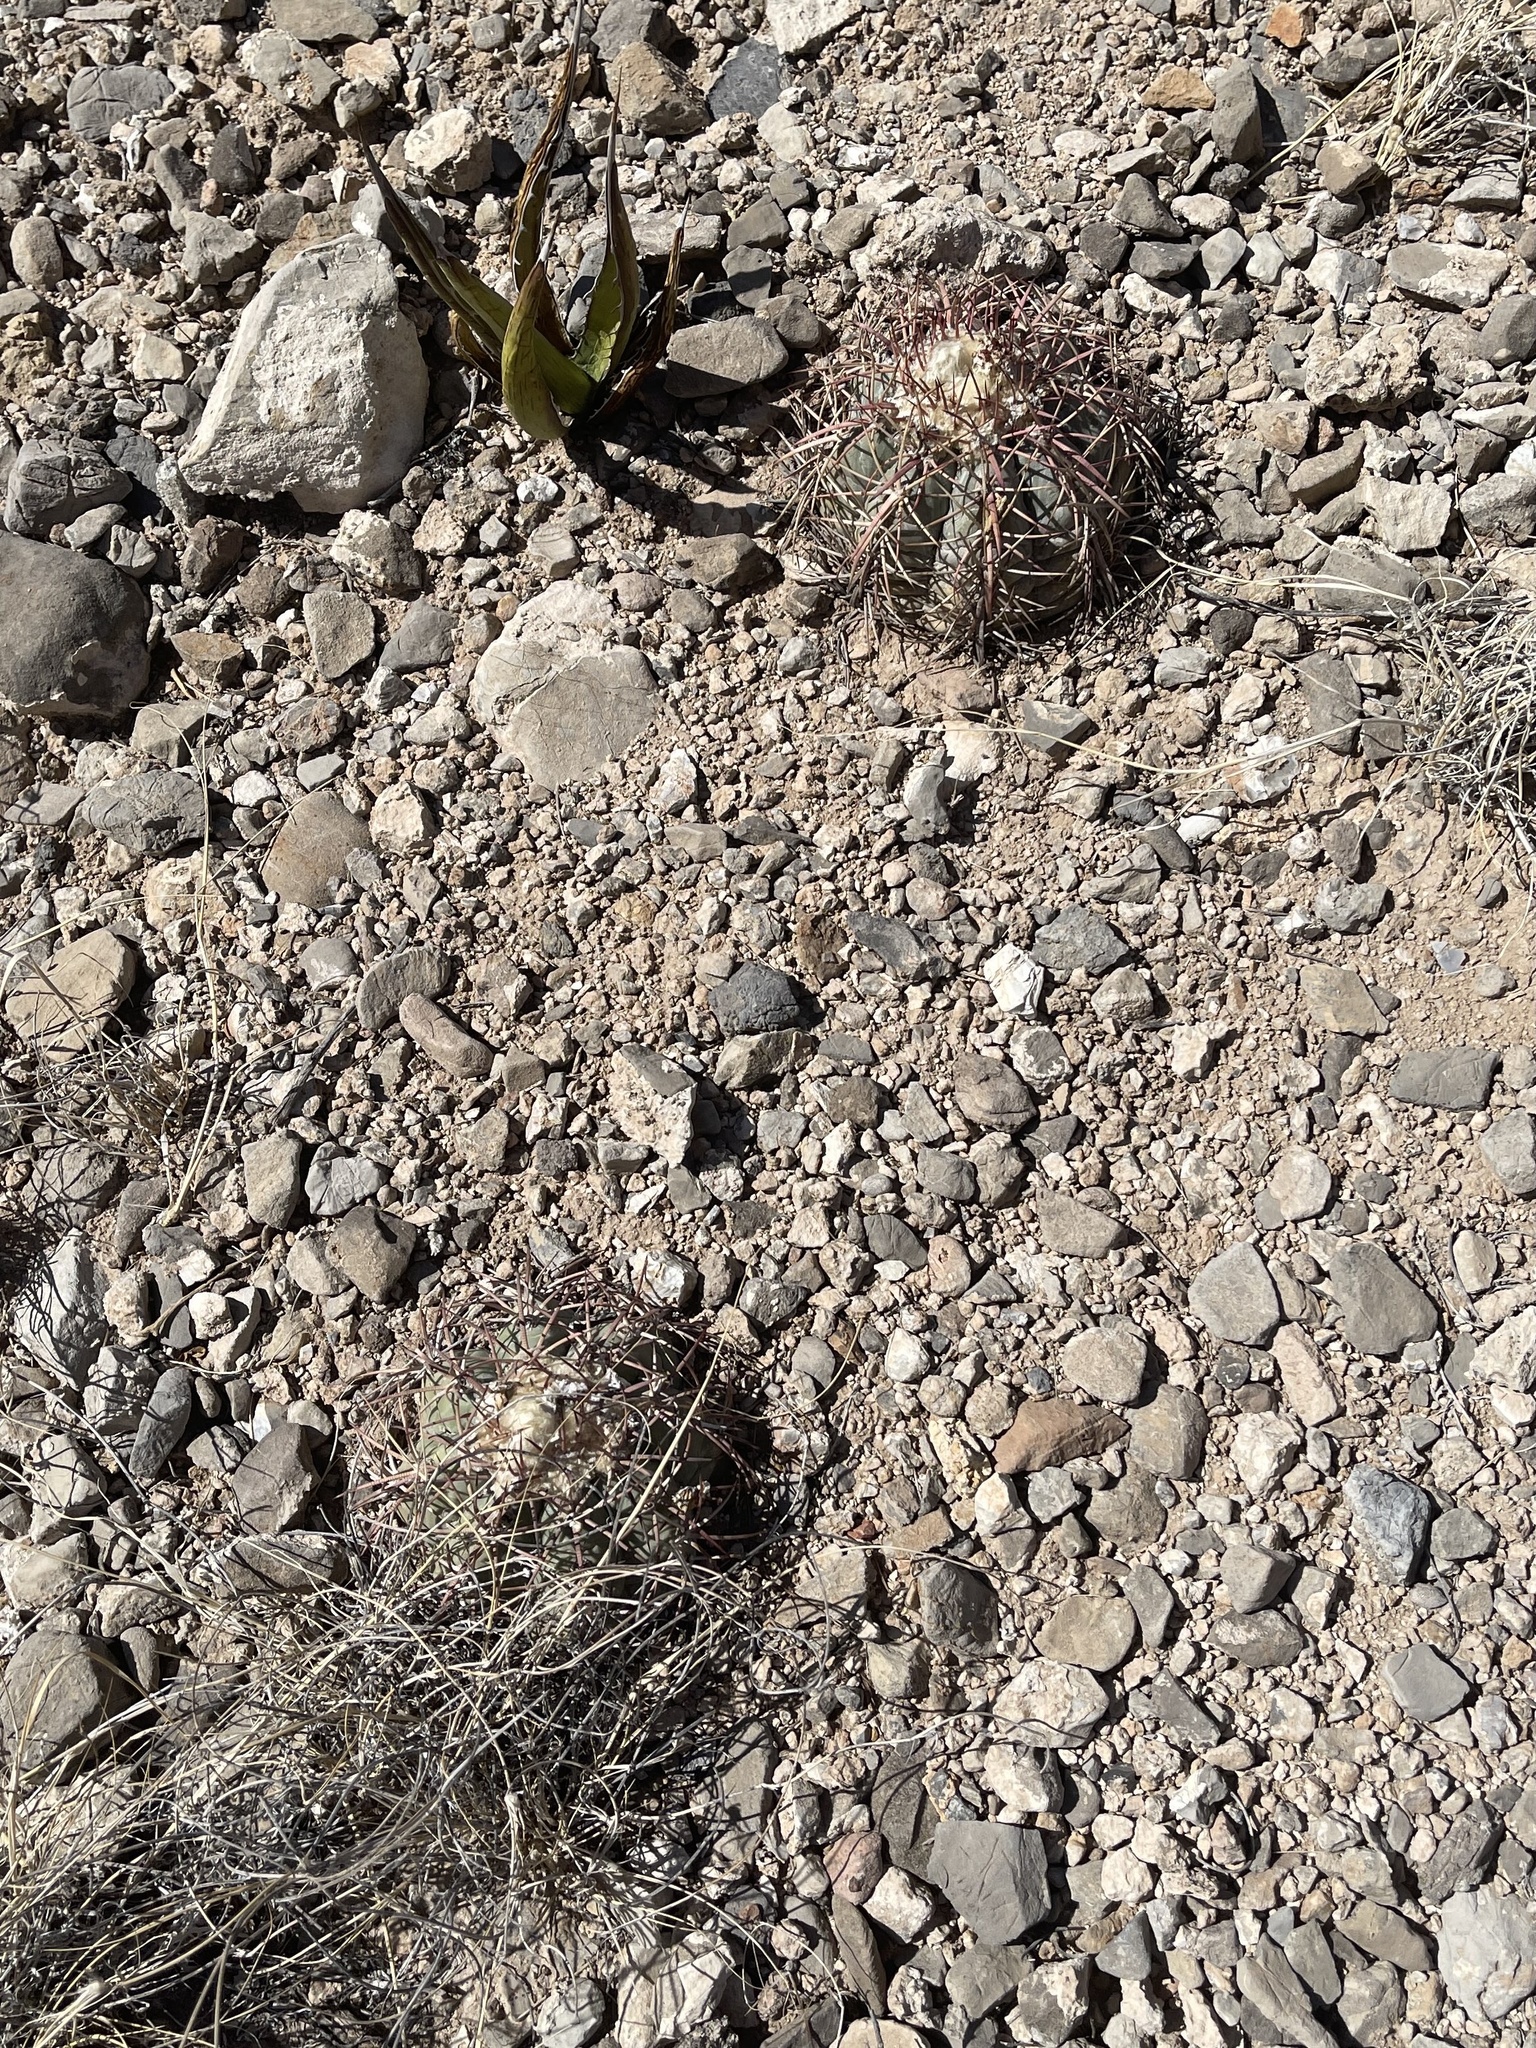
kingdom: Plantae
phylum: Tracheophyta
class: Magnoliopsida
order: Caryophyllales
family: Cactaceae
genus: Echinocactus
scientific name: Echinocactus horizonthalonius
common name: Devilshead
